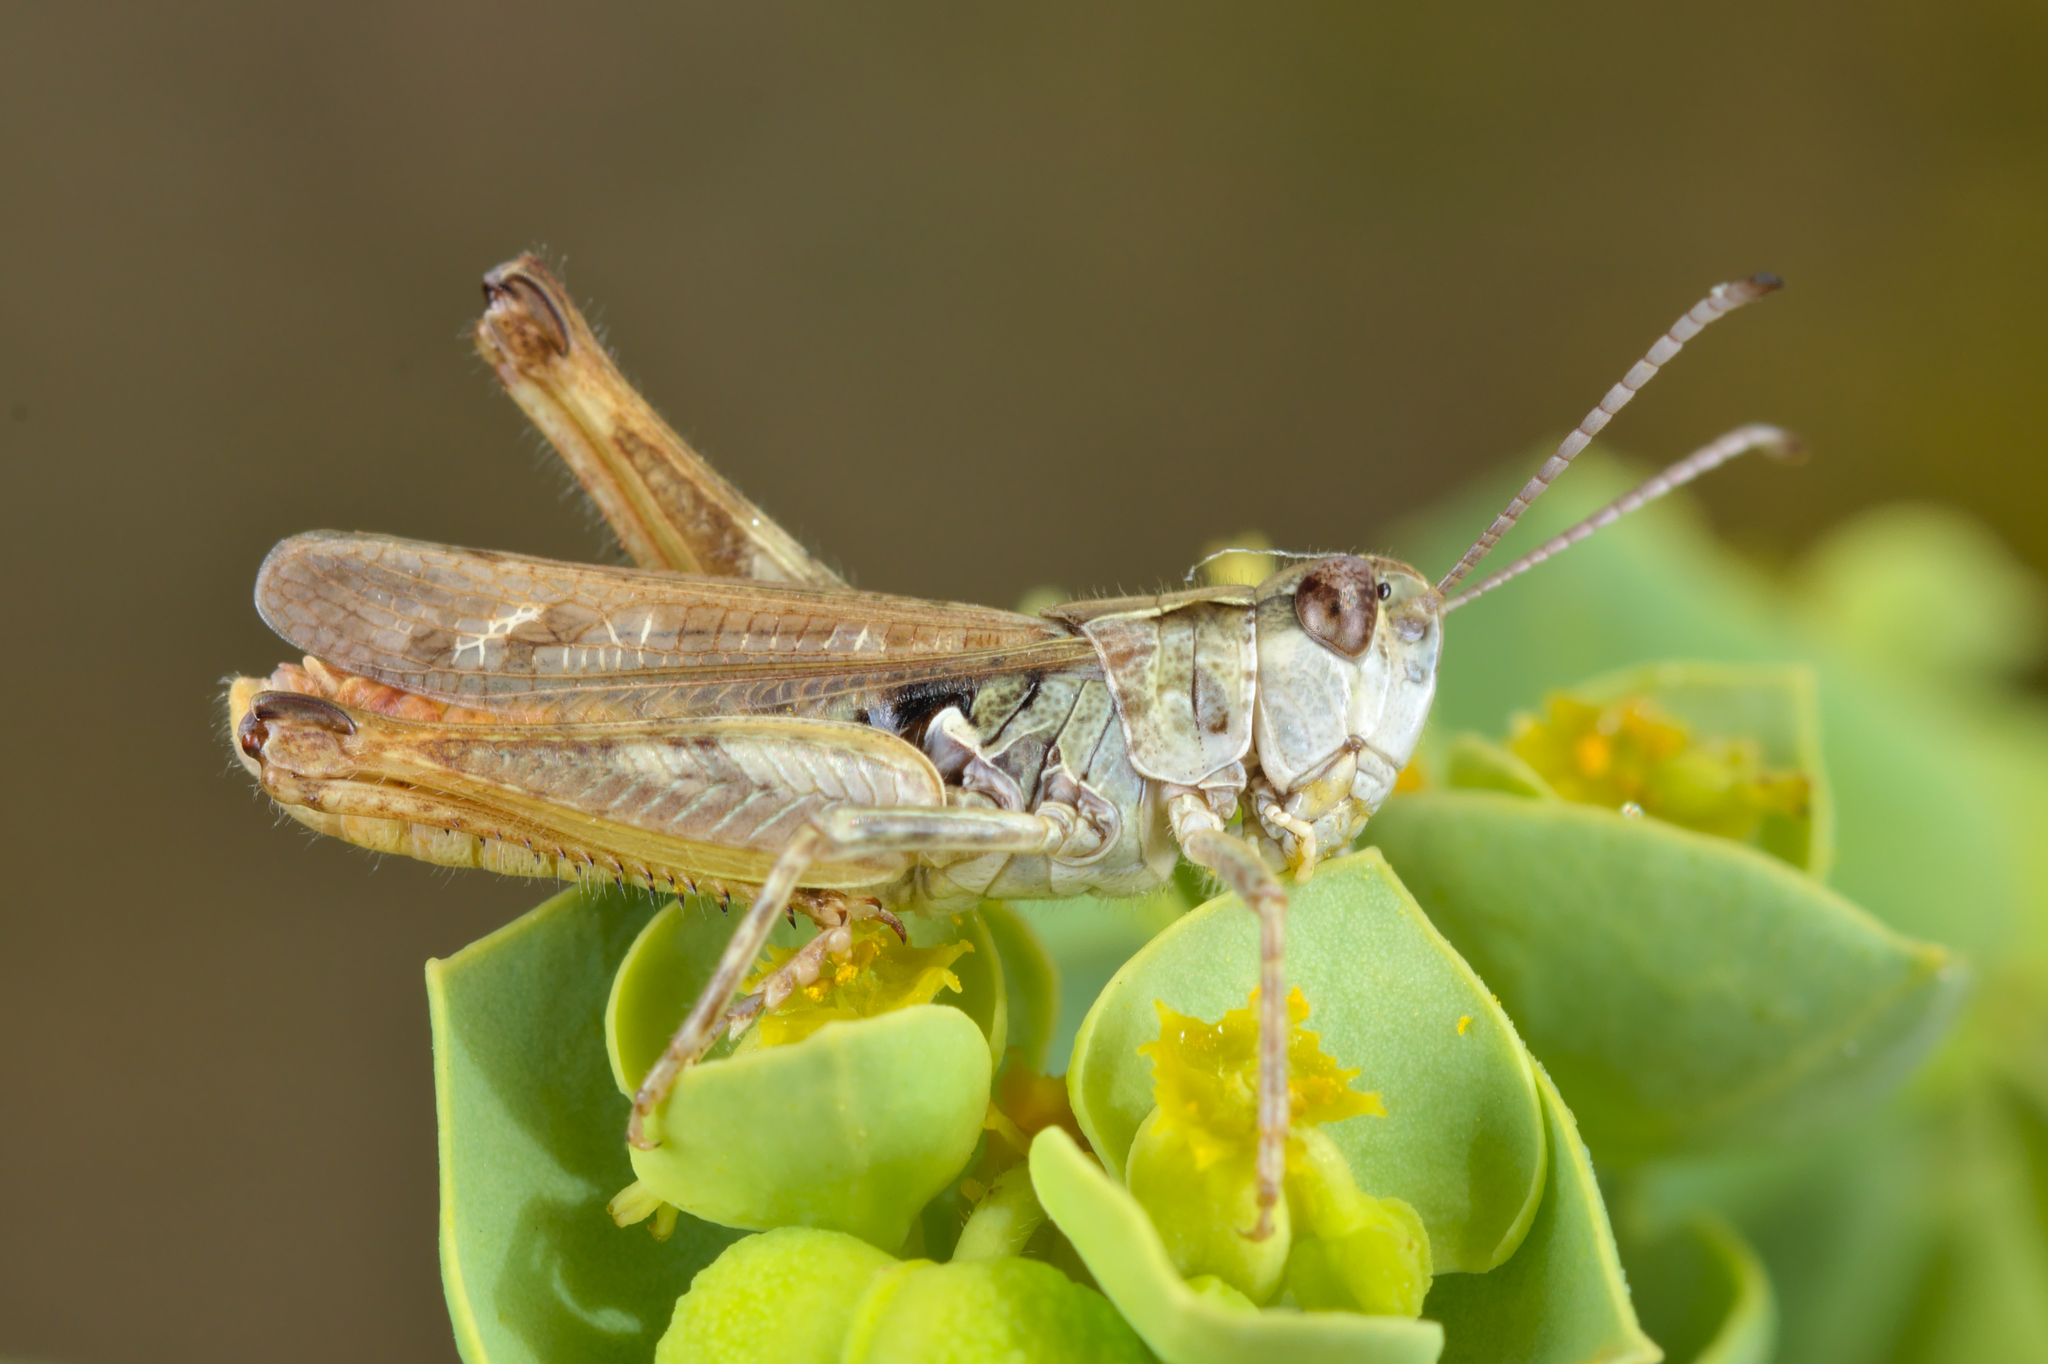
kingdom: Animalia
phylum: Arthropoda
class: Insecta
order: Orthoptera
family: Acrididae
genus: Myrmeleotettix
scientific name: Myrmeleotettix maculatus
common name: Mottled grasshopper
